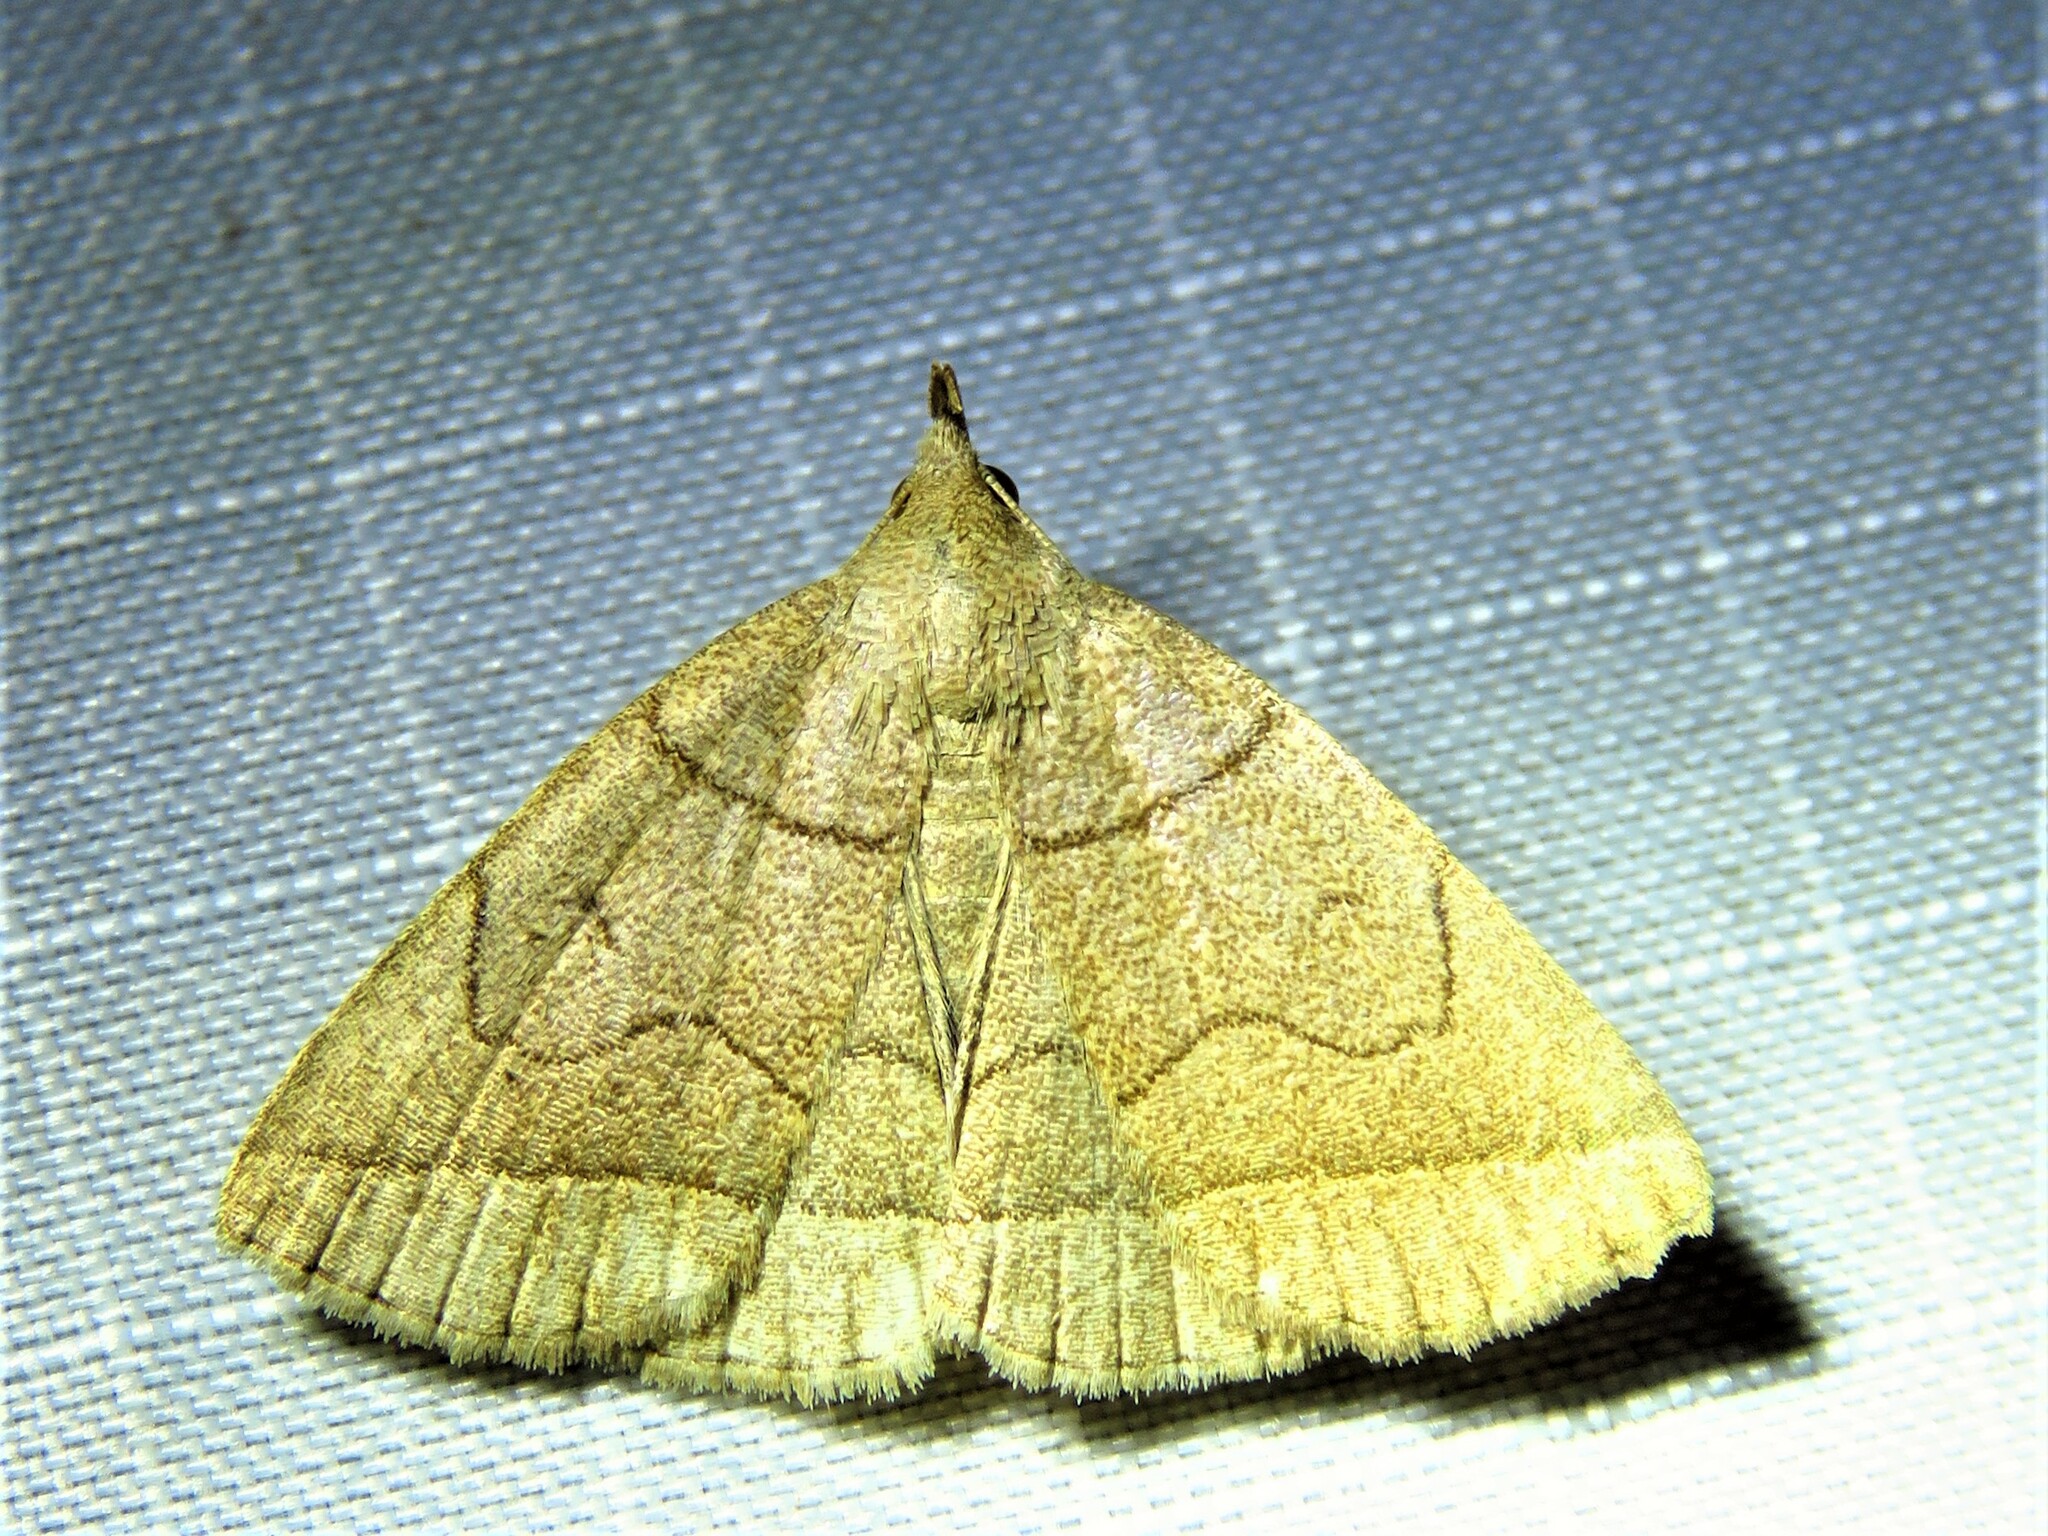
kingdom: Animalia
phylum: Arthropoda
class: Insecta
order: Lepidoptera
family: Erebidae
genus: Zanclognatha
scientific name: Zanclognatha cruralis
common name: Early fan-foot
